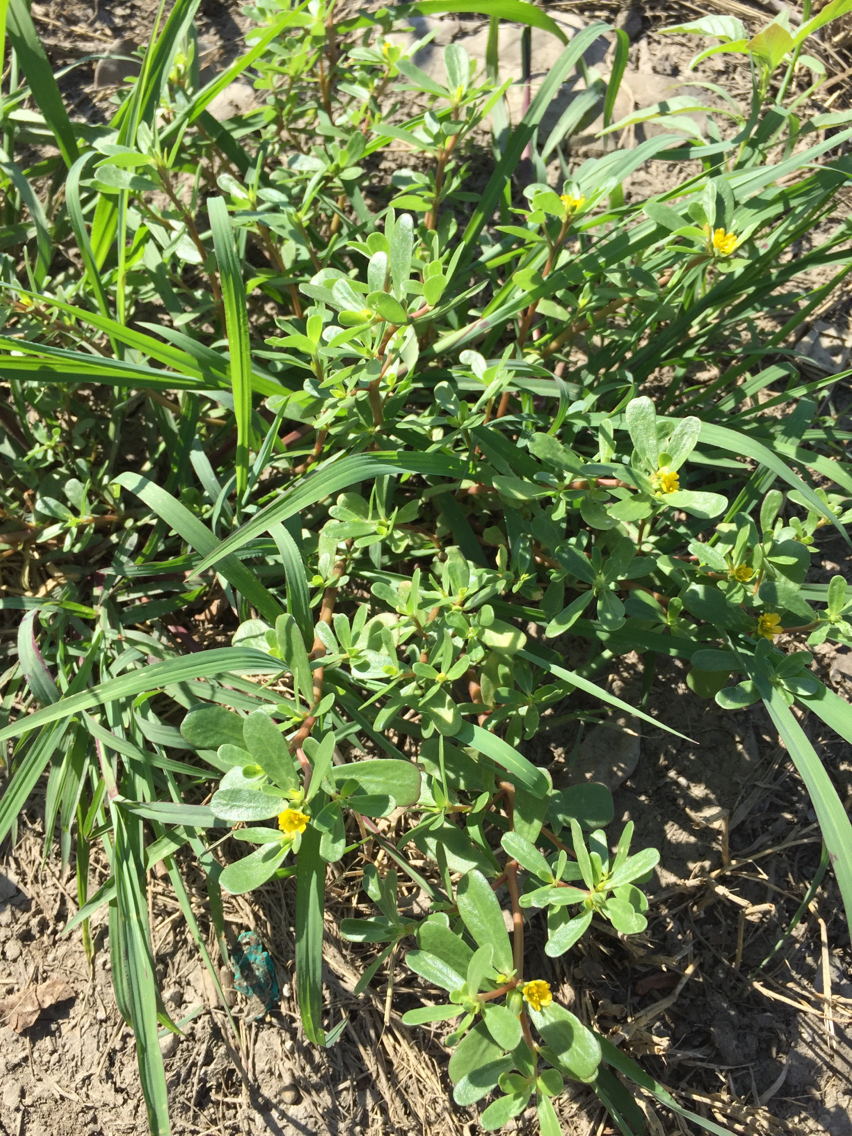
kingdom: Plantae
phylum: Tracheophyta
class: Magnoliopsida
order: Caryophyllales
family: Portulacaceae
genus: Portulaca
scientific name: Portulaca oleracea
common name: Common purslane
